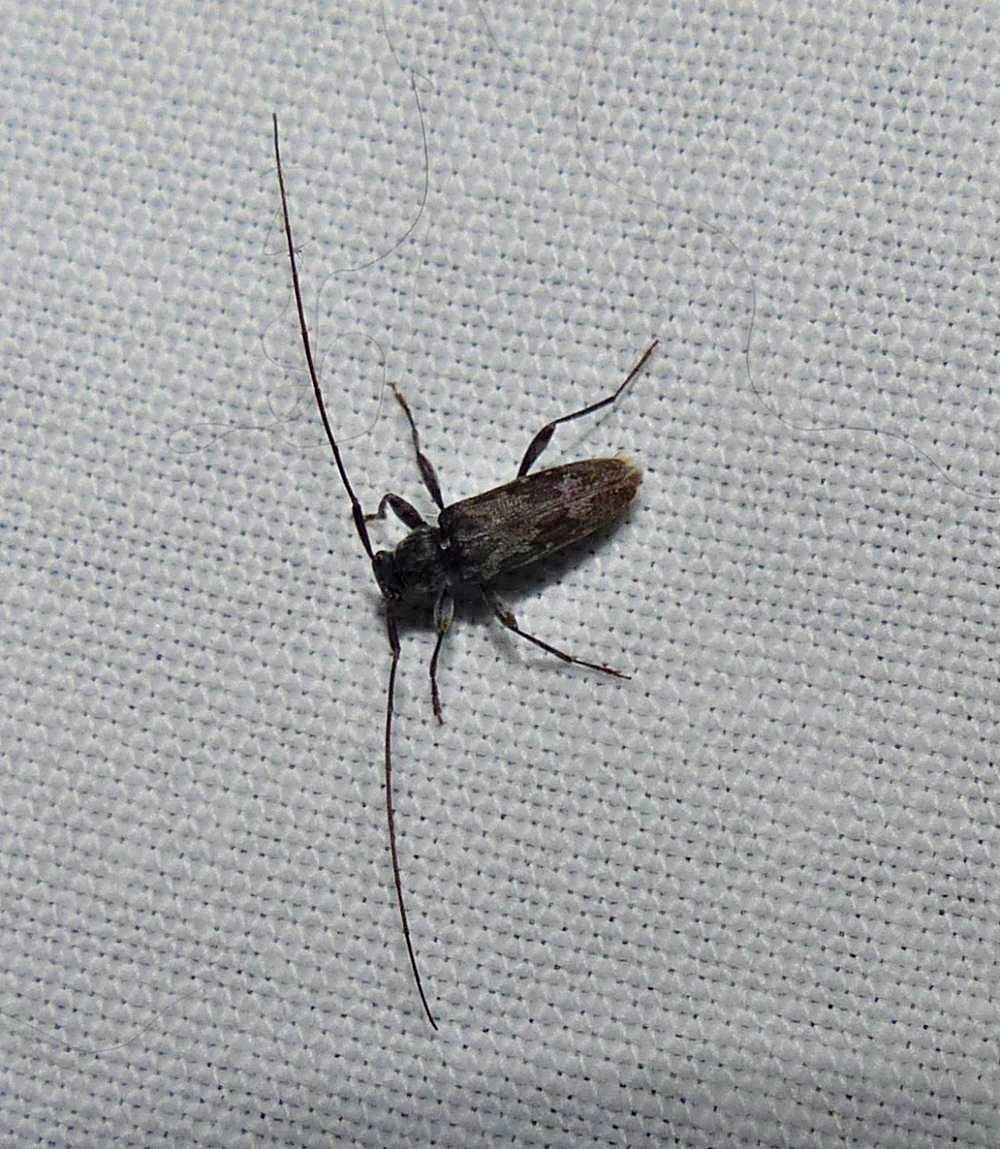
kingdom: Animalia
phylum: Arthropoda
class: Insecta
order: Coleoptera
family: Cerambycidae
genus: Lepturges
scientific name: Lepturges confluens
